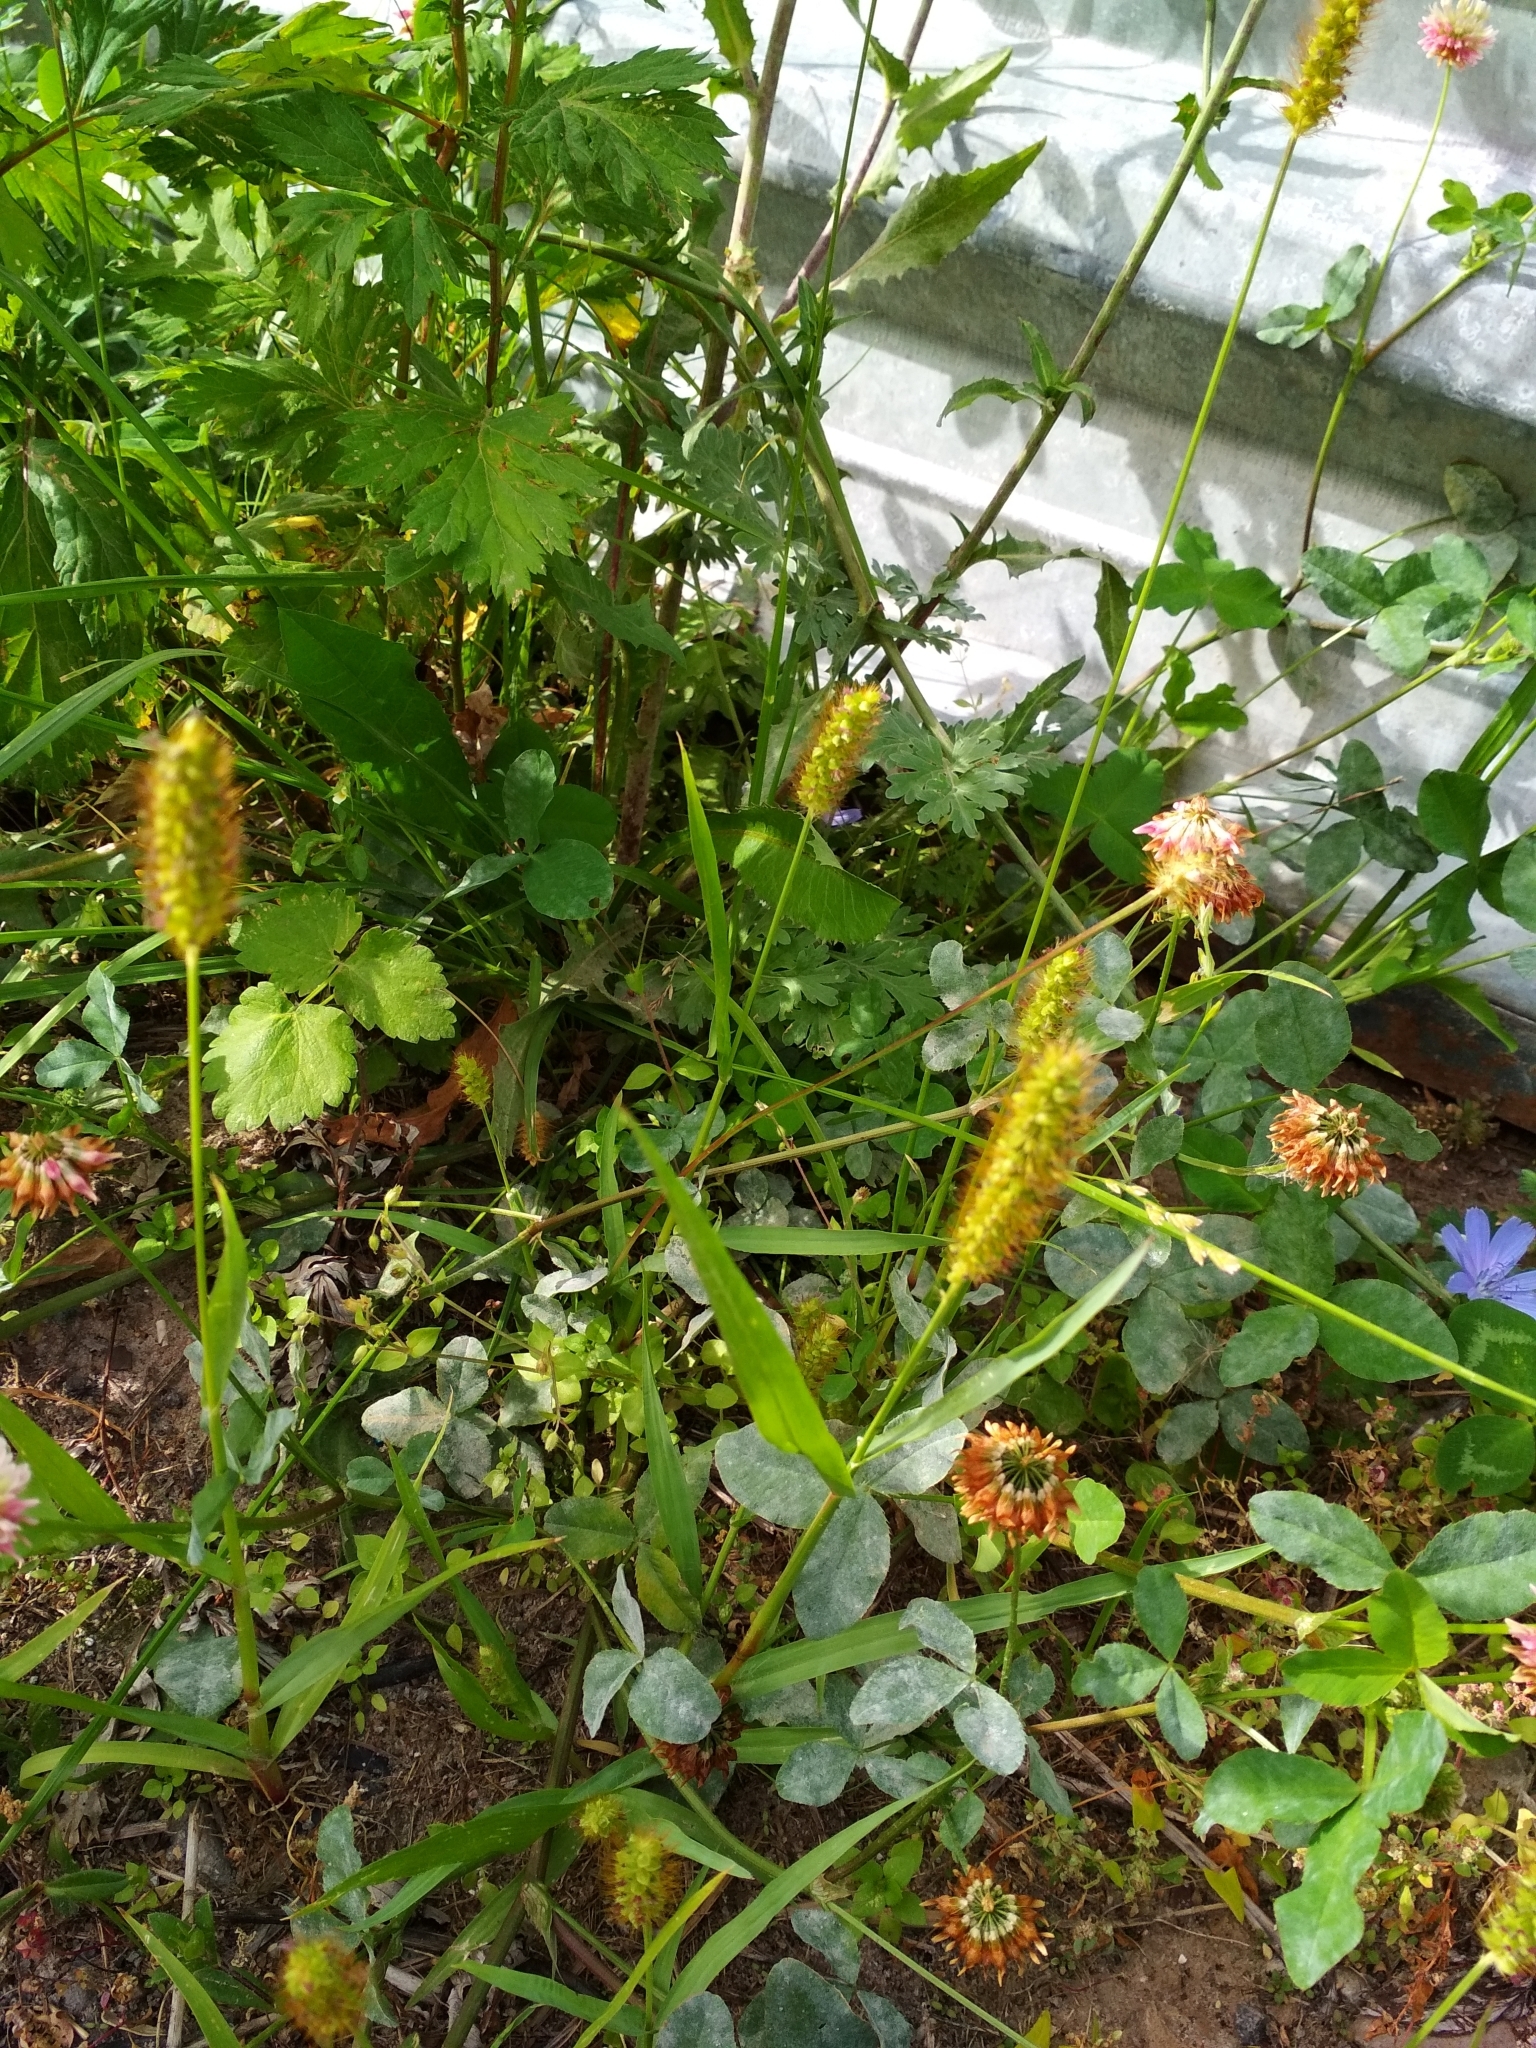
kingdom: Plantae
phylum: Tracheophyta
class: Liliopsida
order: Poales
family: Poaceae
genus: Setaria
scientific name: Setaria pumila
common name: Yellow bristle-grass
